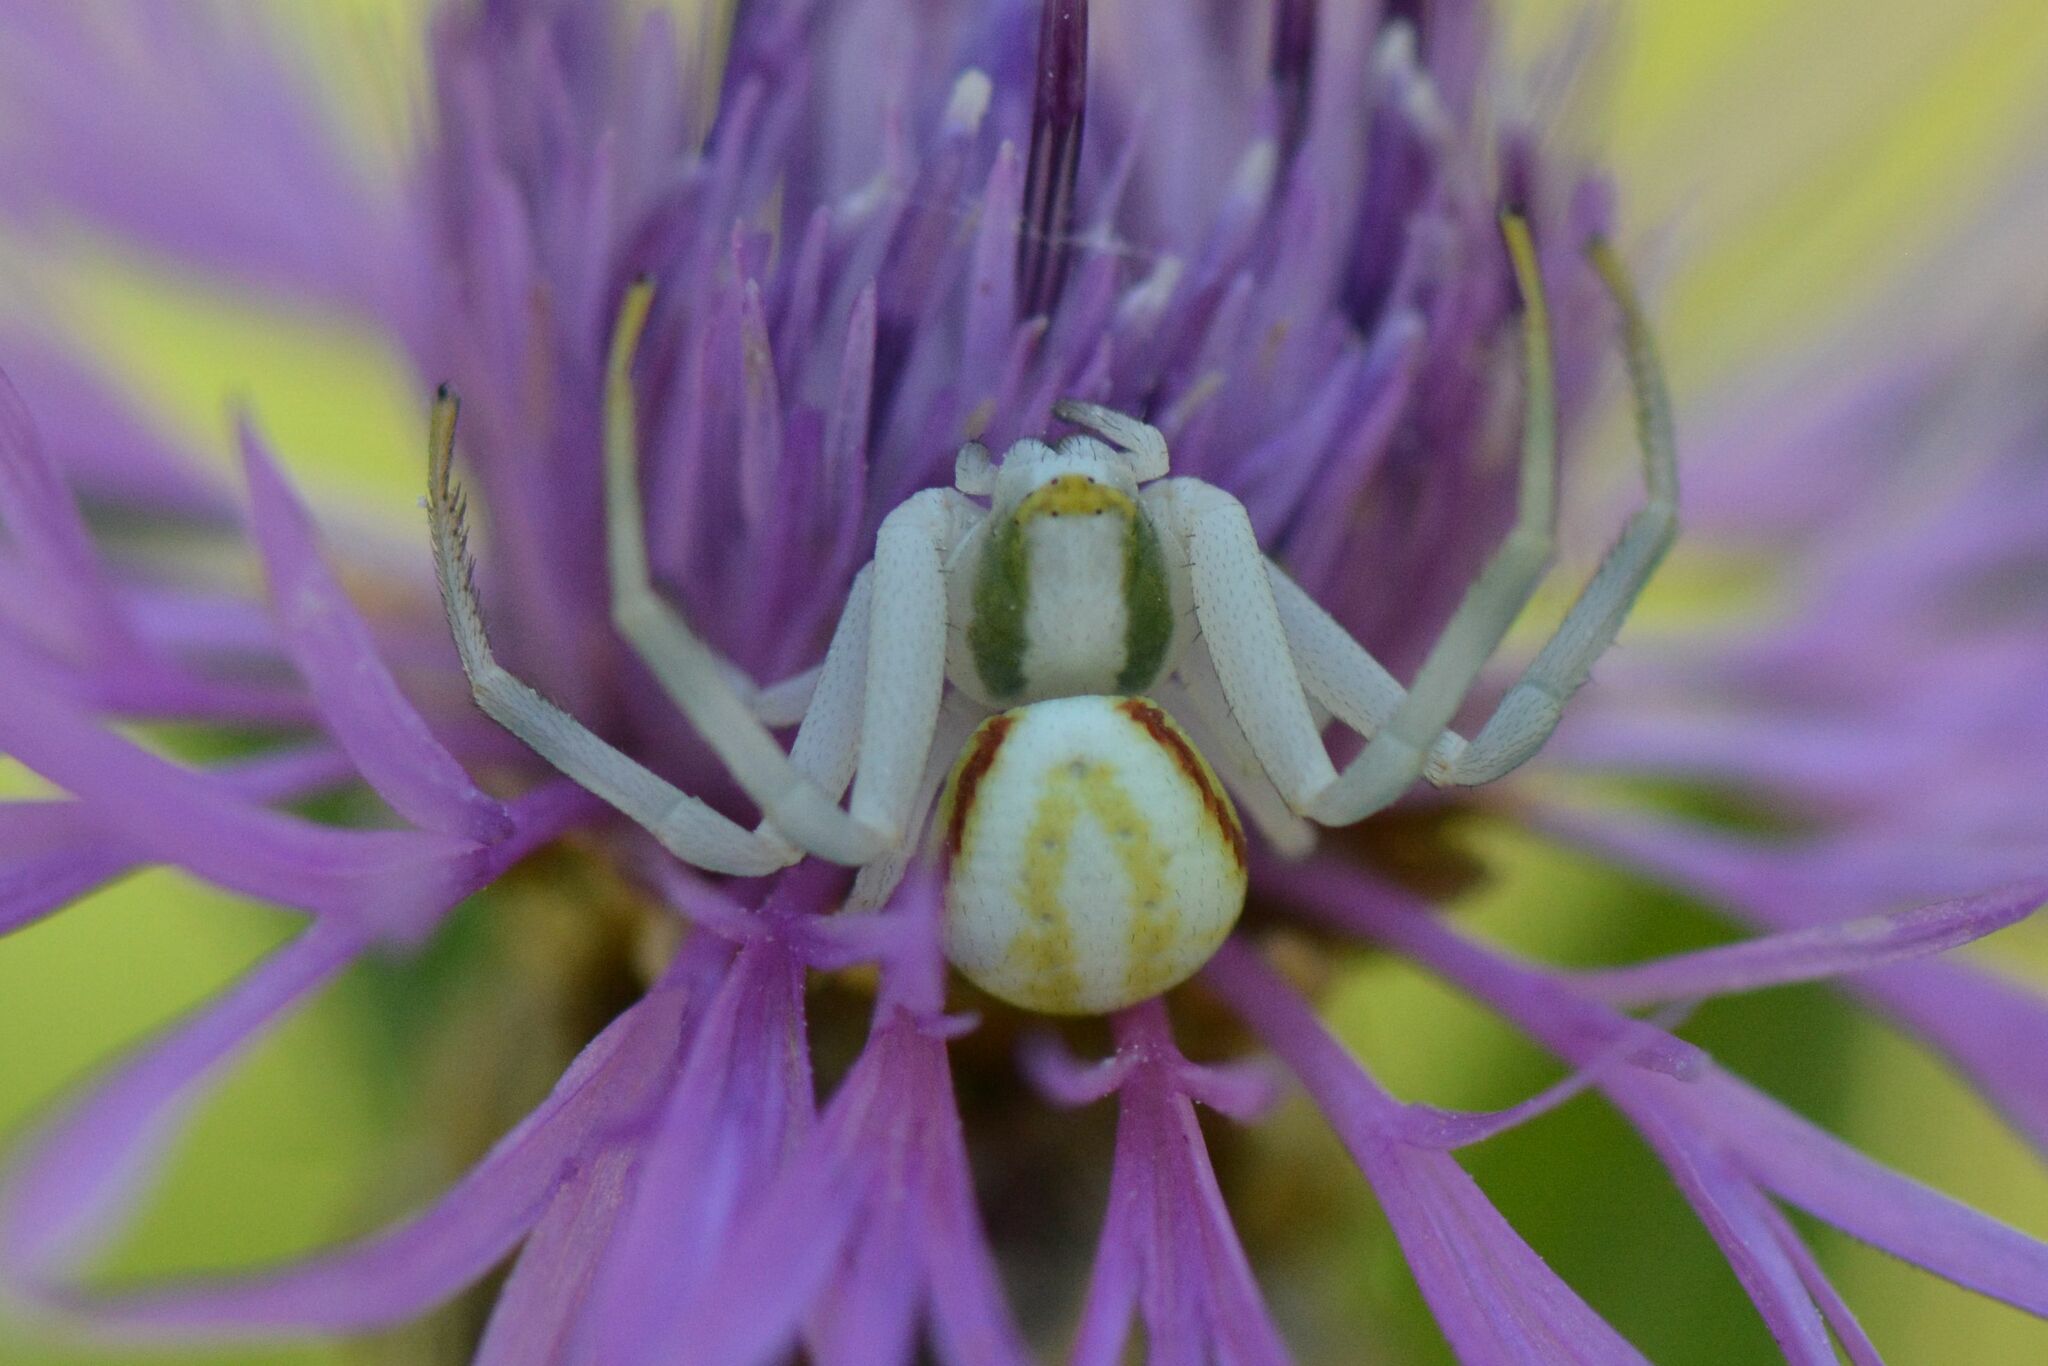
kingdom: Animalia
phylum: Arthropoda
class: Arachnida
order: Araneae
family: Thomisidae
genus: Misumena
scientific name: Misumena vatia
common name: Goldenrod crab spider
